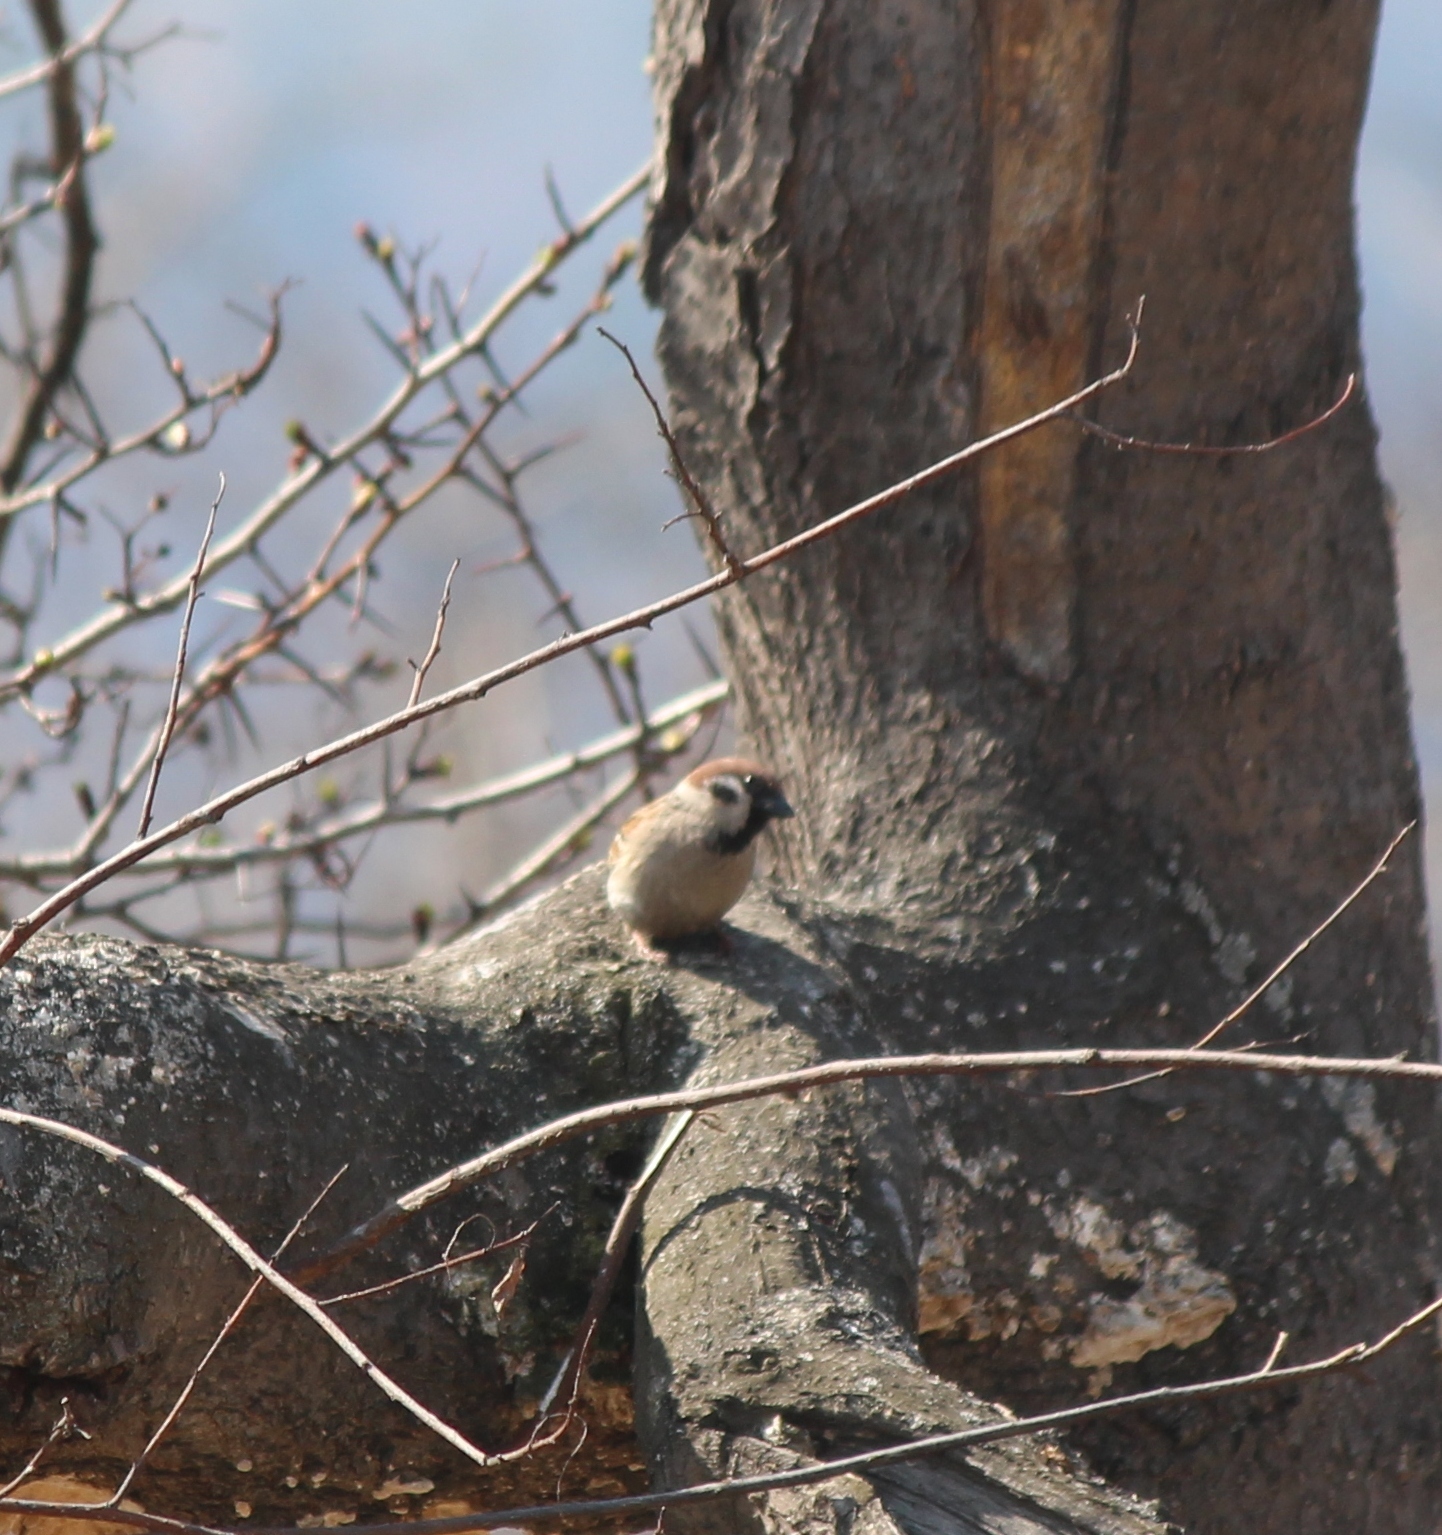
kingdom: Animalia
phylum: Chordata
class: Aves
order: Passeriformes
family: Passeridae
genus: Passer
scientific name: Passer montanus
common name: Eurasian tree sparrow
